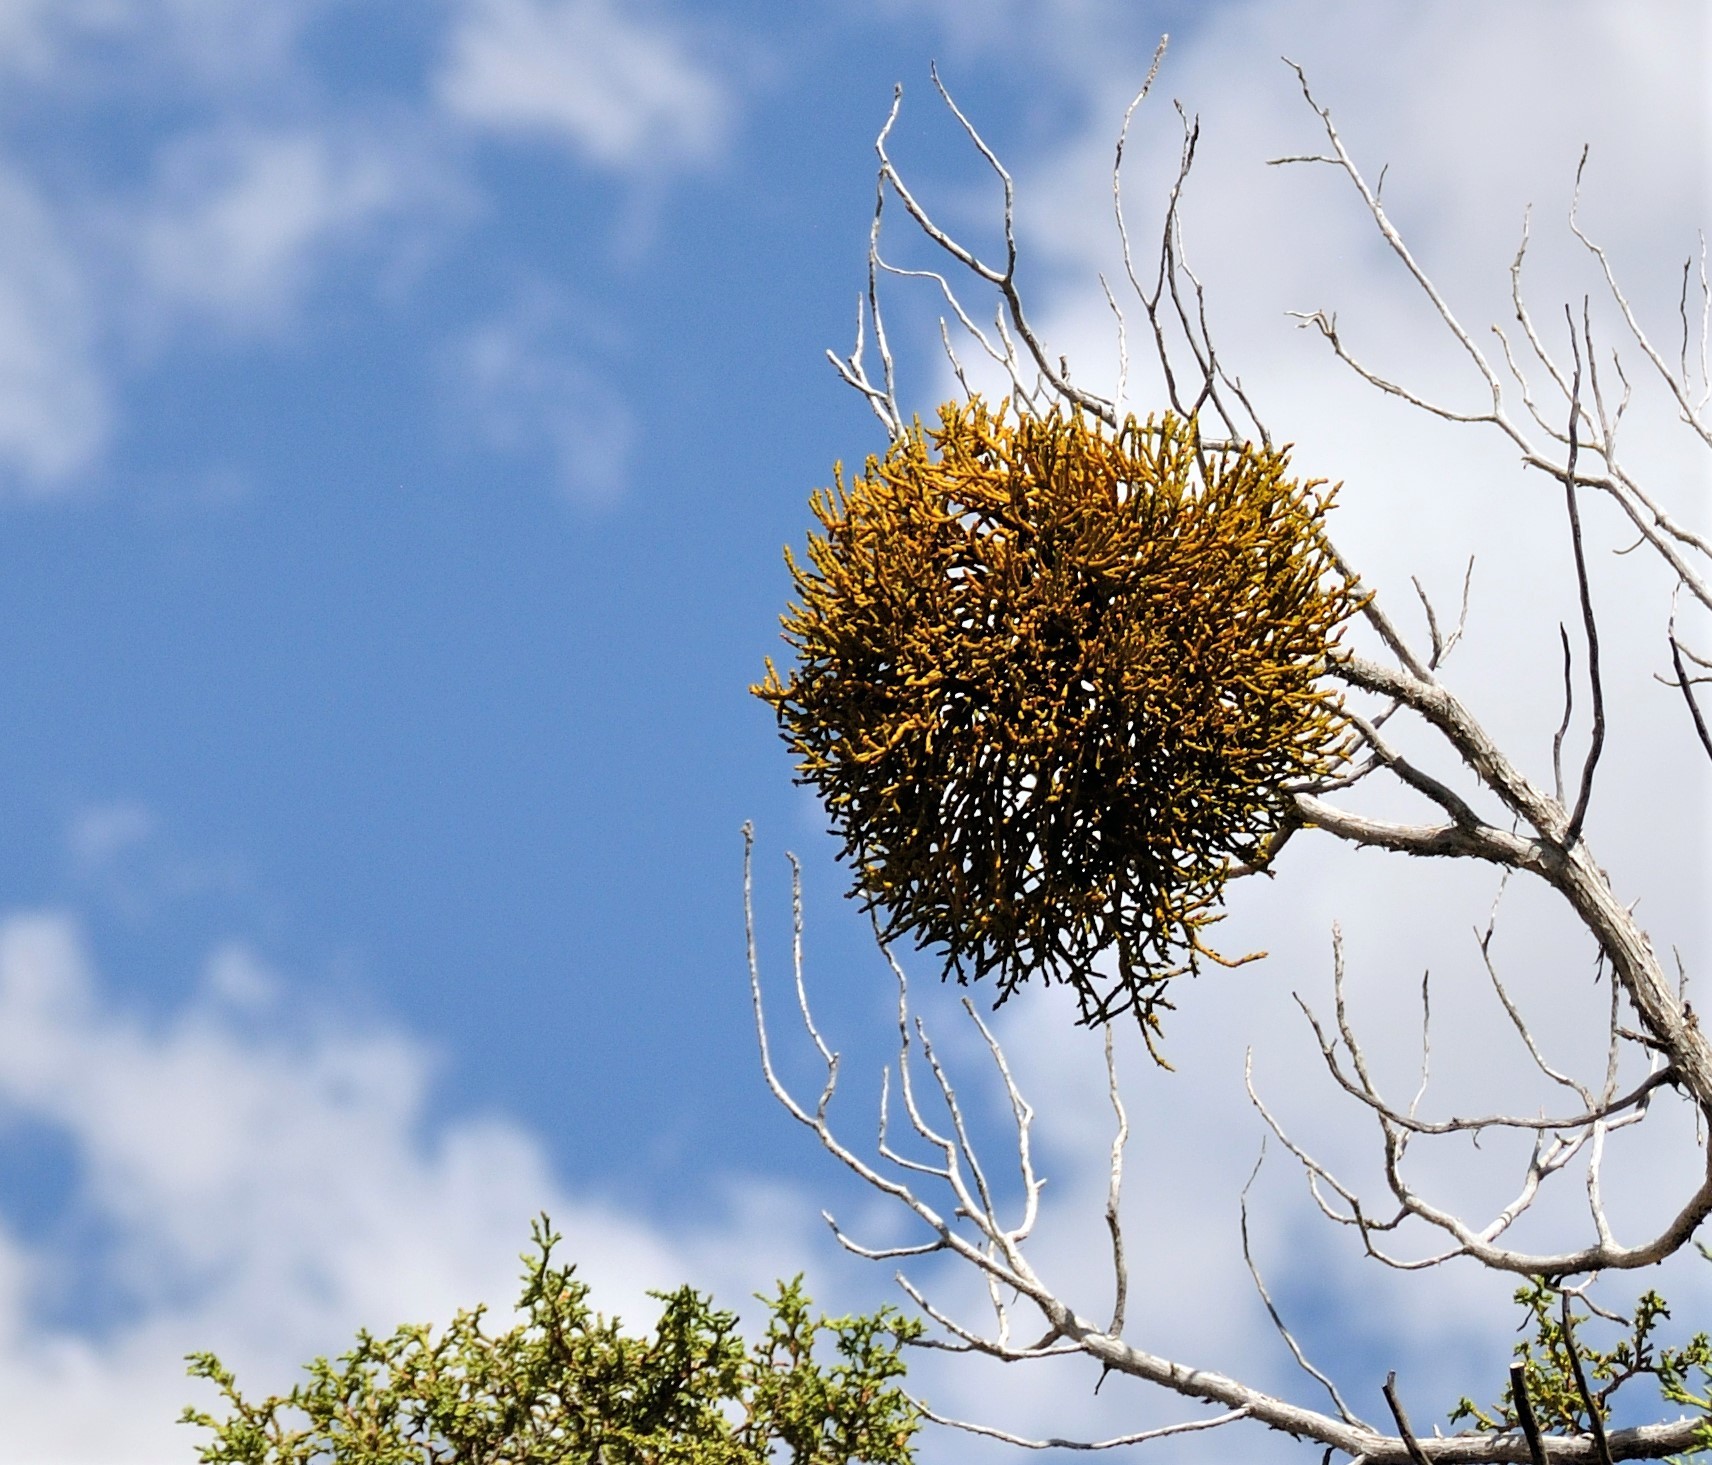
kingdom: Plantae
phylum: Tracheophyta
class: Magnoliopsida
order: Santalales
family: Viscaceae
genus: Phoradendron
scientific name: Phoradendron juniperinum
